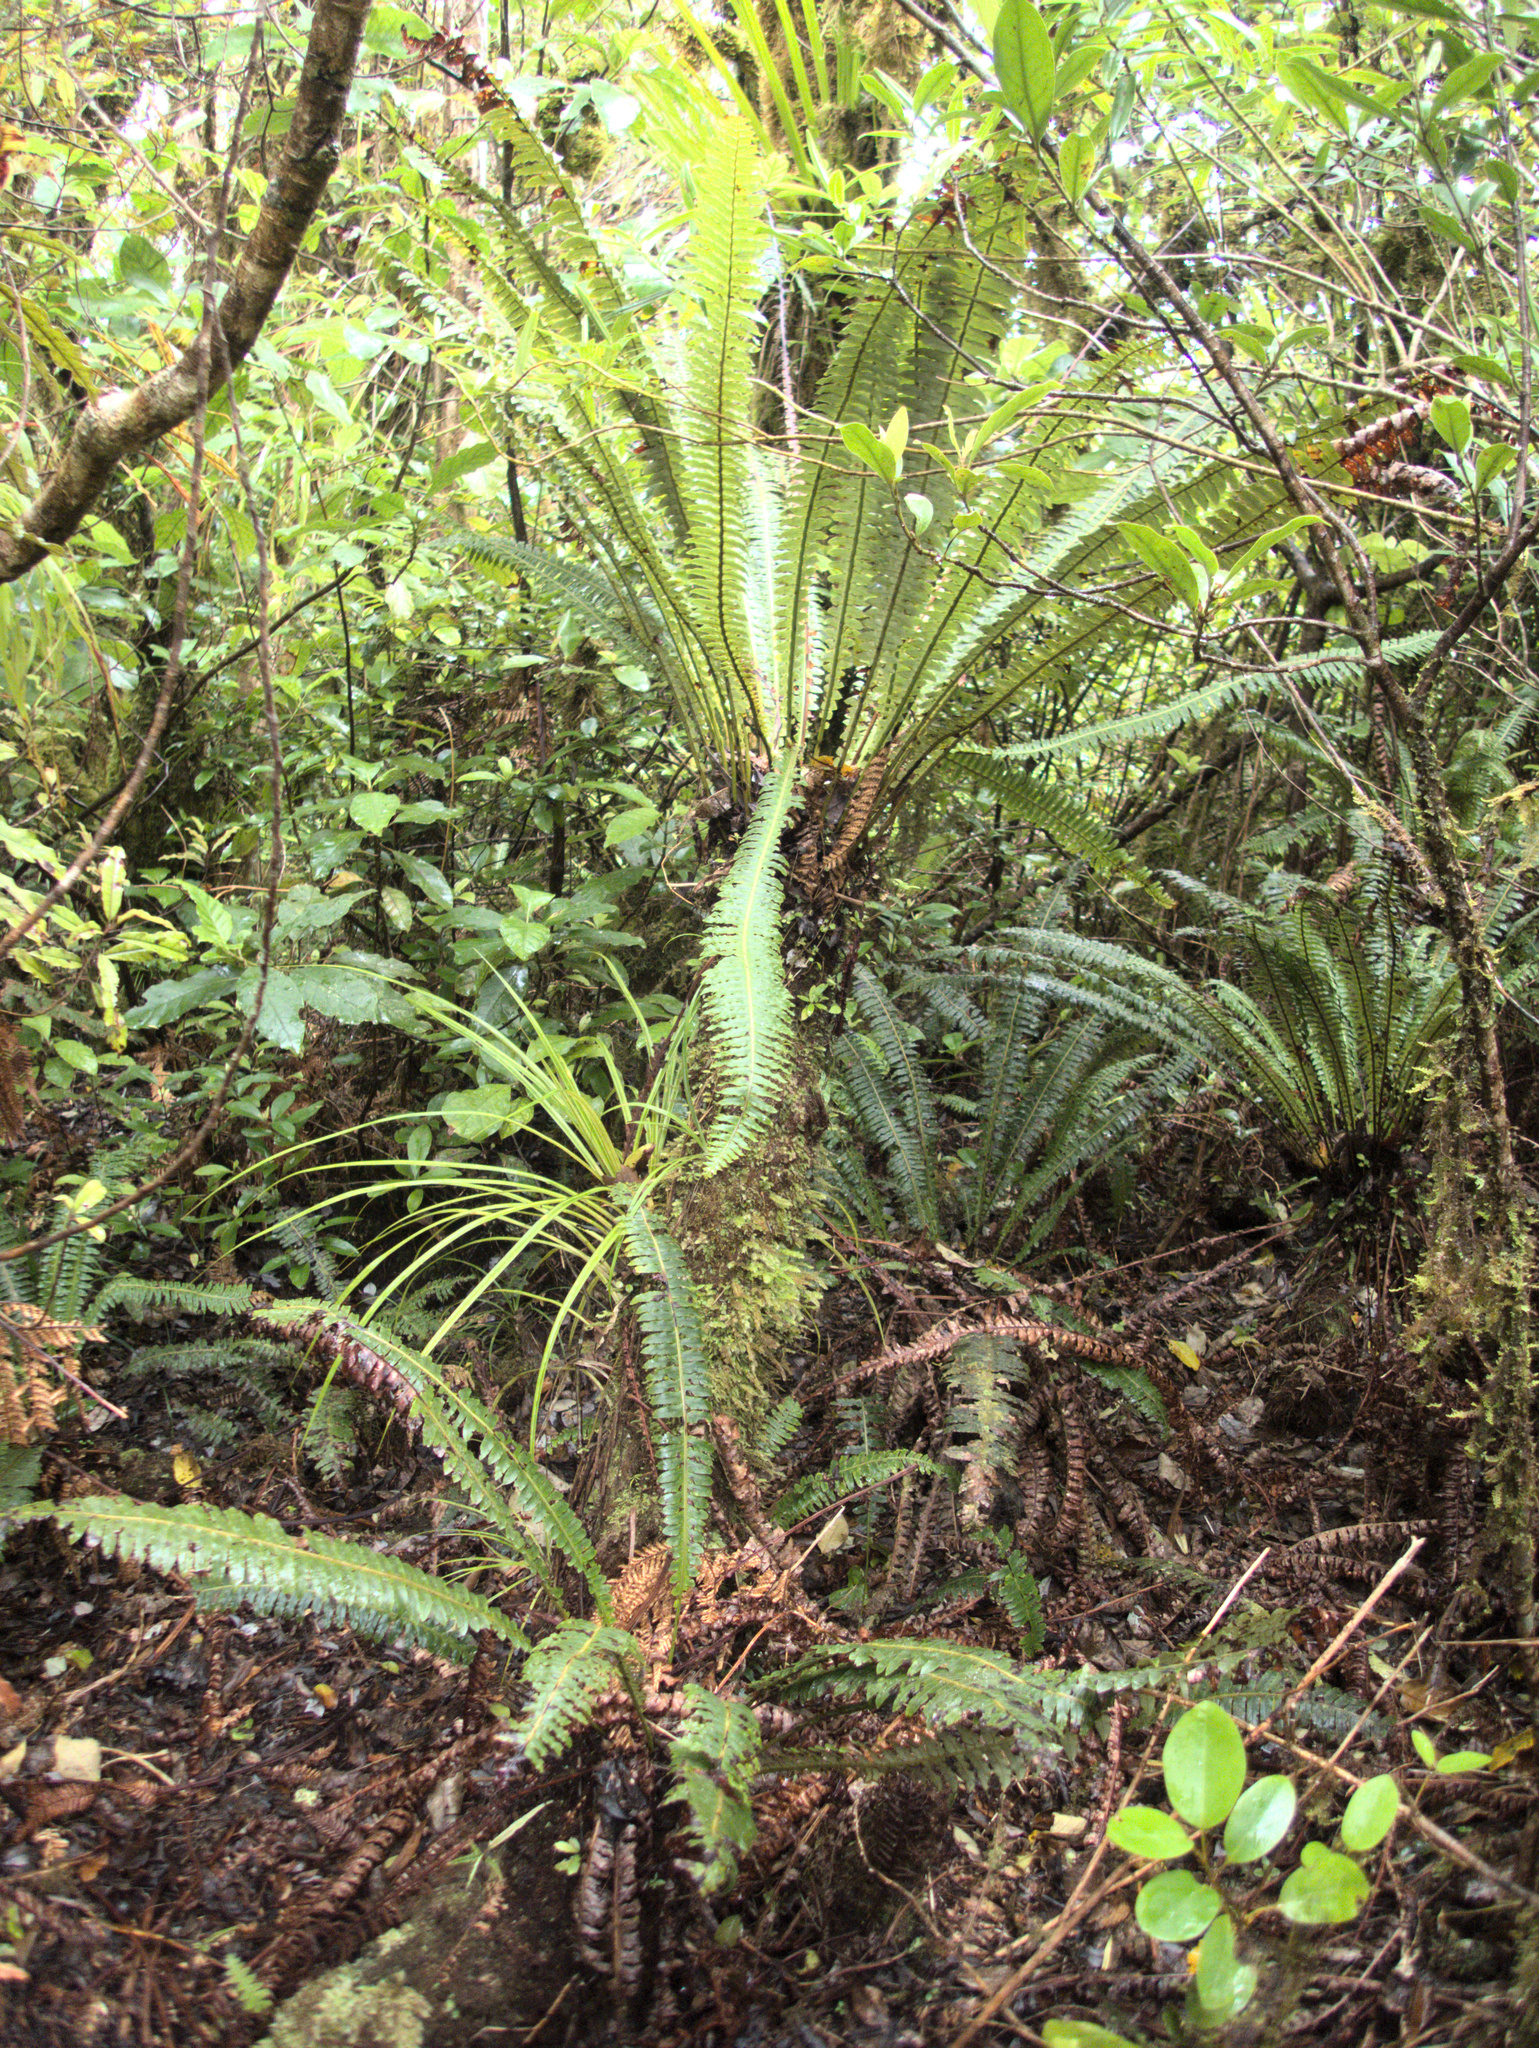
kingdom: Plantae
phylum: Tracheophyta
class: Polypodiopsida
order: Polypodiales
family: Blechnaceae
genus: Lomaria
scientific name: Lomaria discolor
